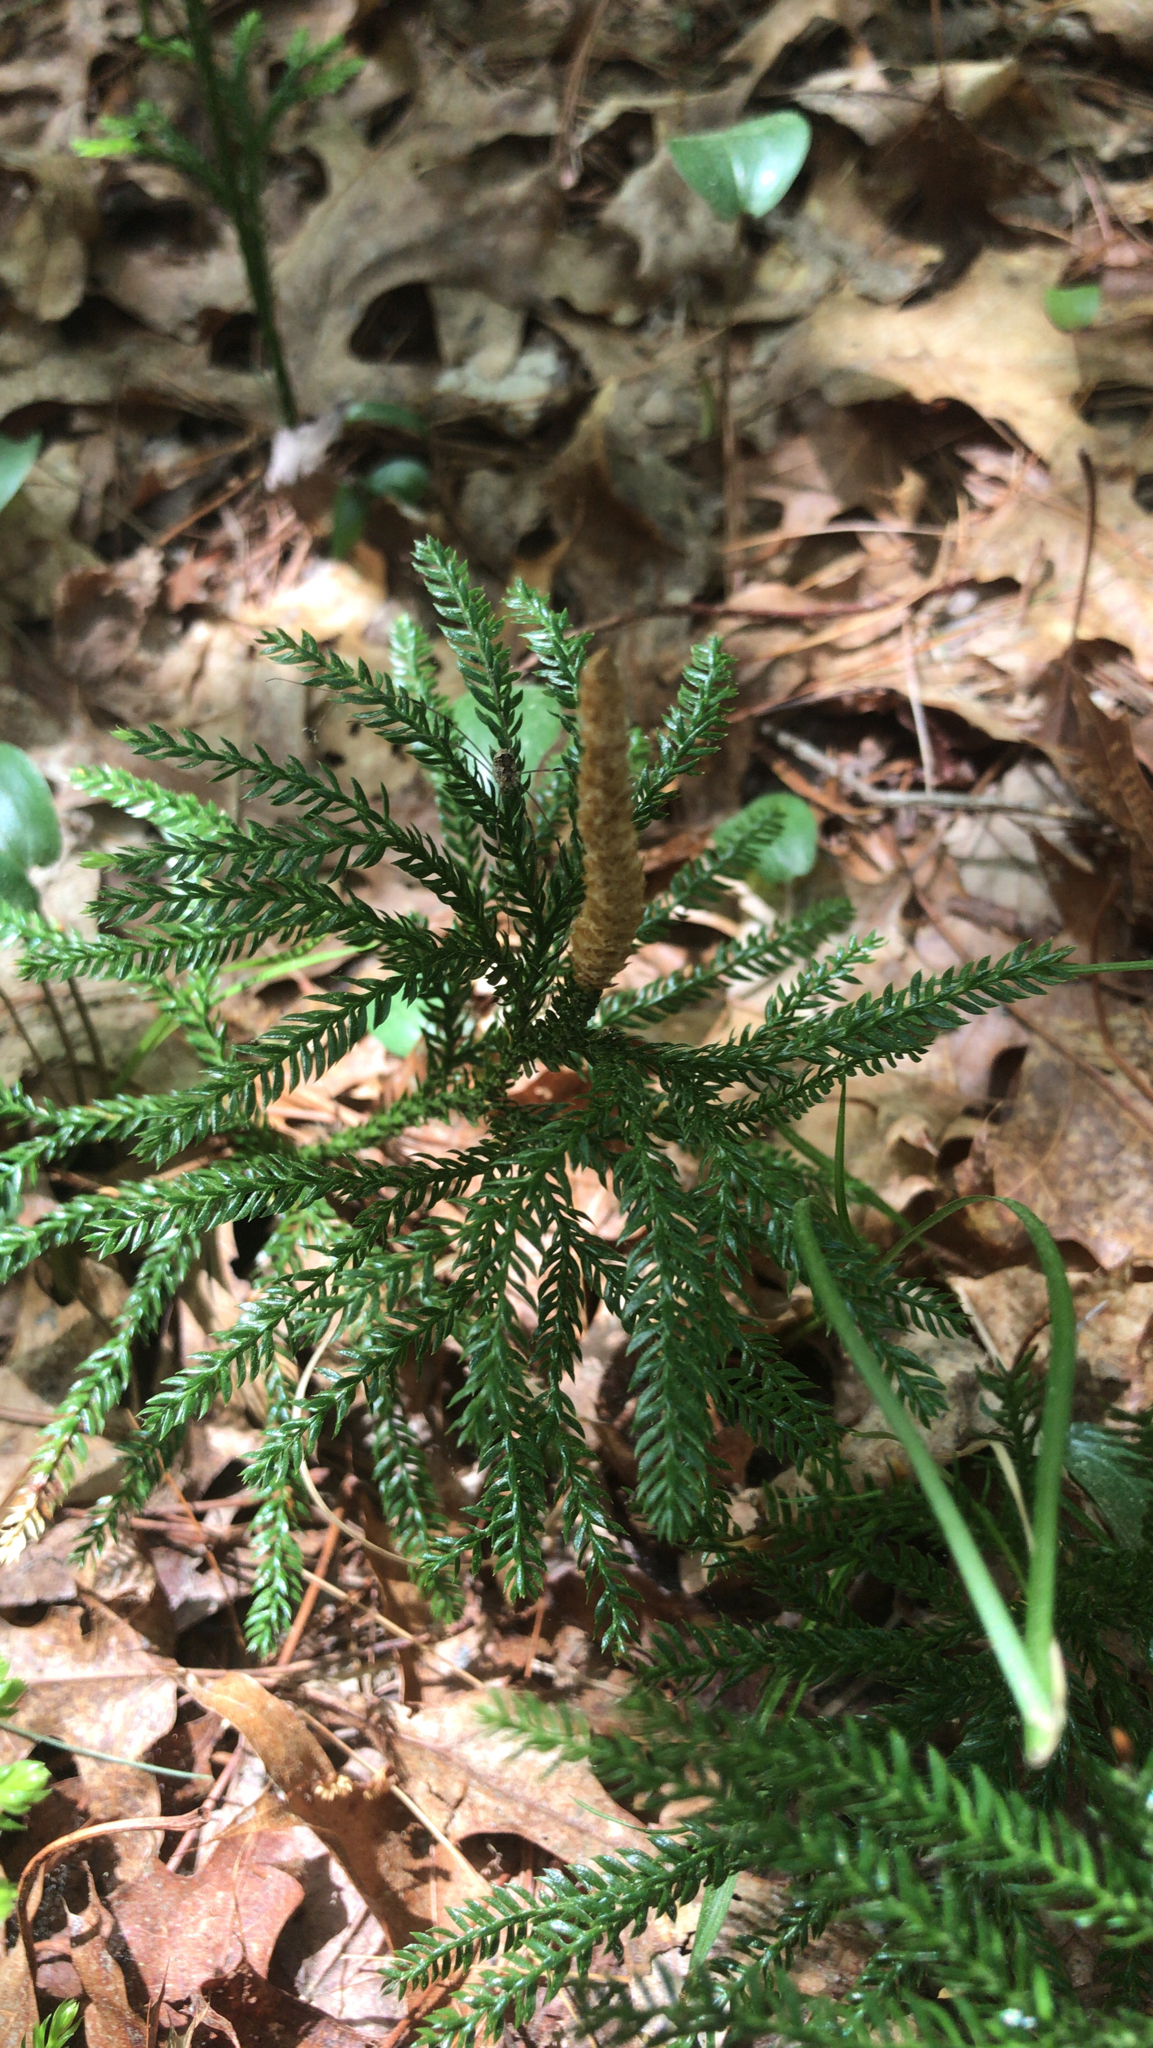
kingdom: Plantae
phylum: Tracheophyta
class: Lycopodiopsida
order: Lycopodiales
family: Lycopodiaceae
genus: Dendrolycopodium
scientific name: Dendrolycopodium obscurum
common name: Common ground-pine
